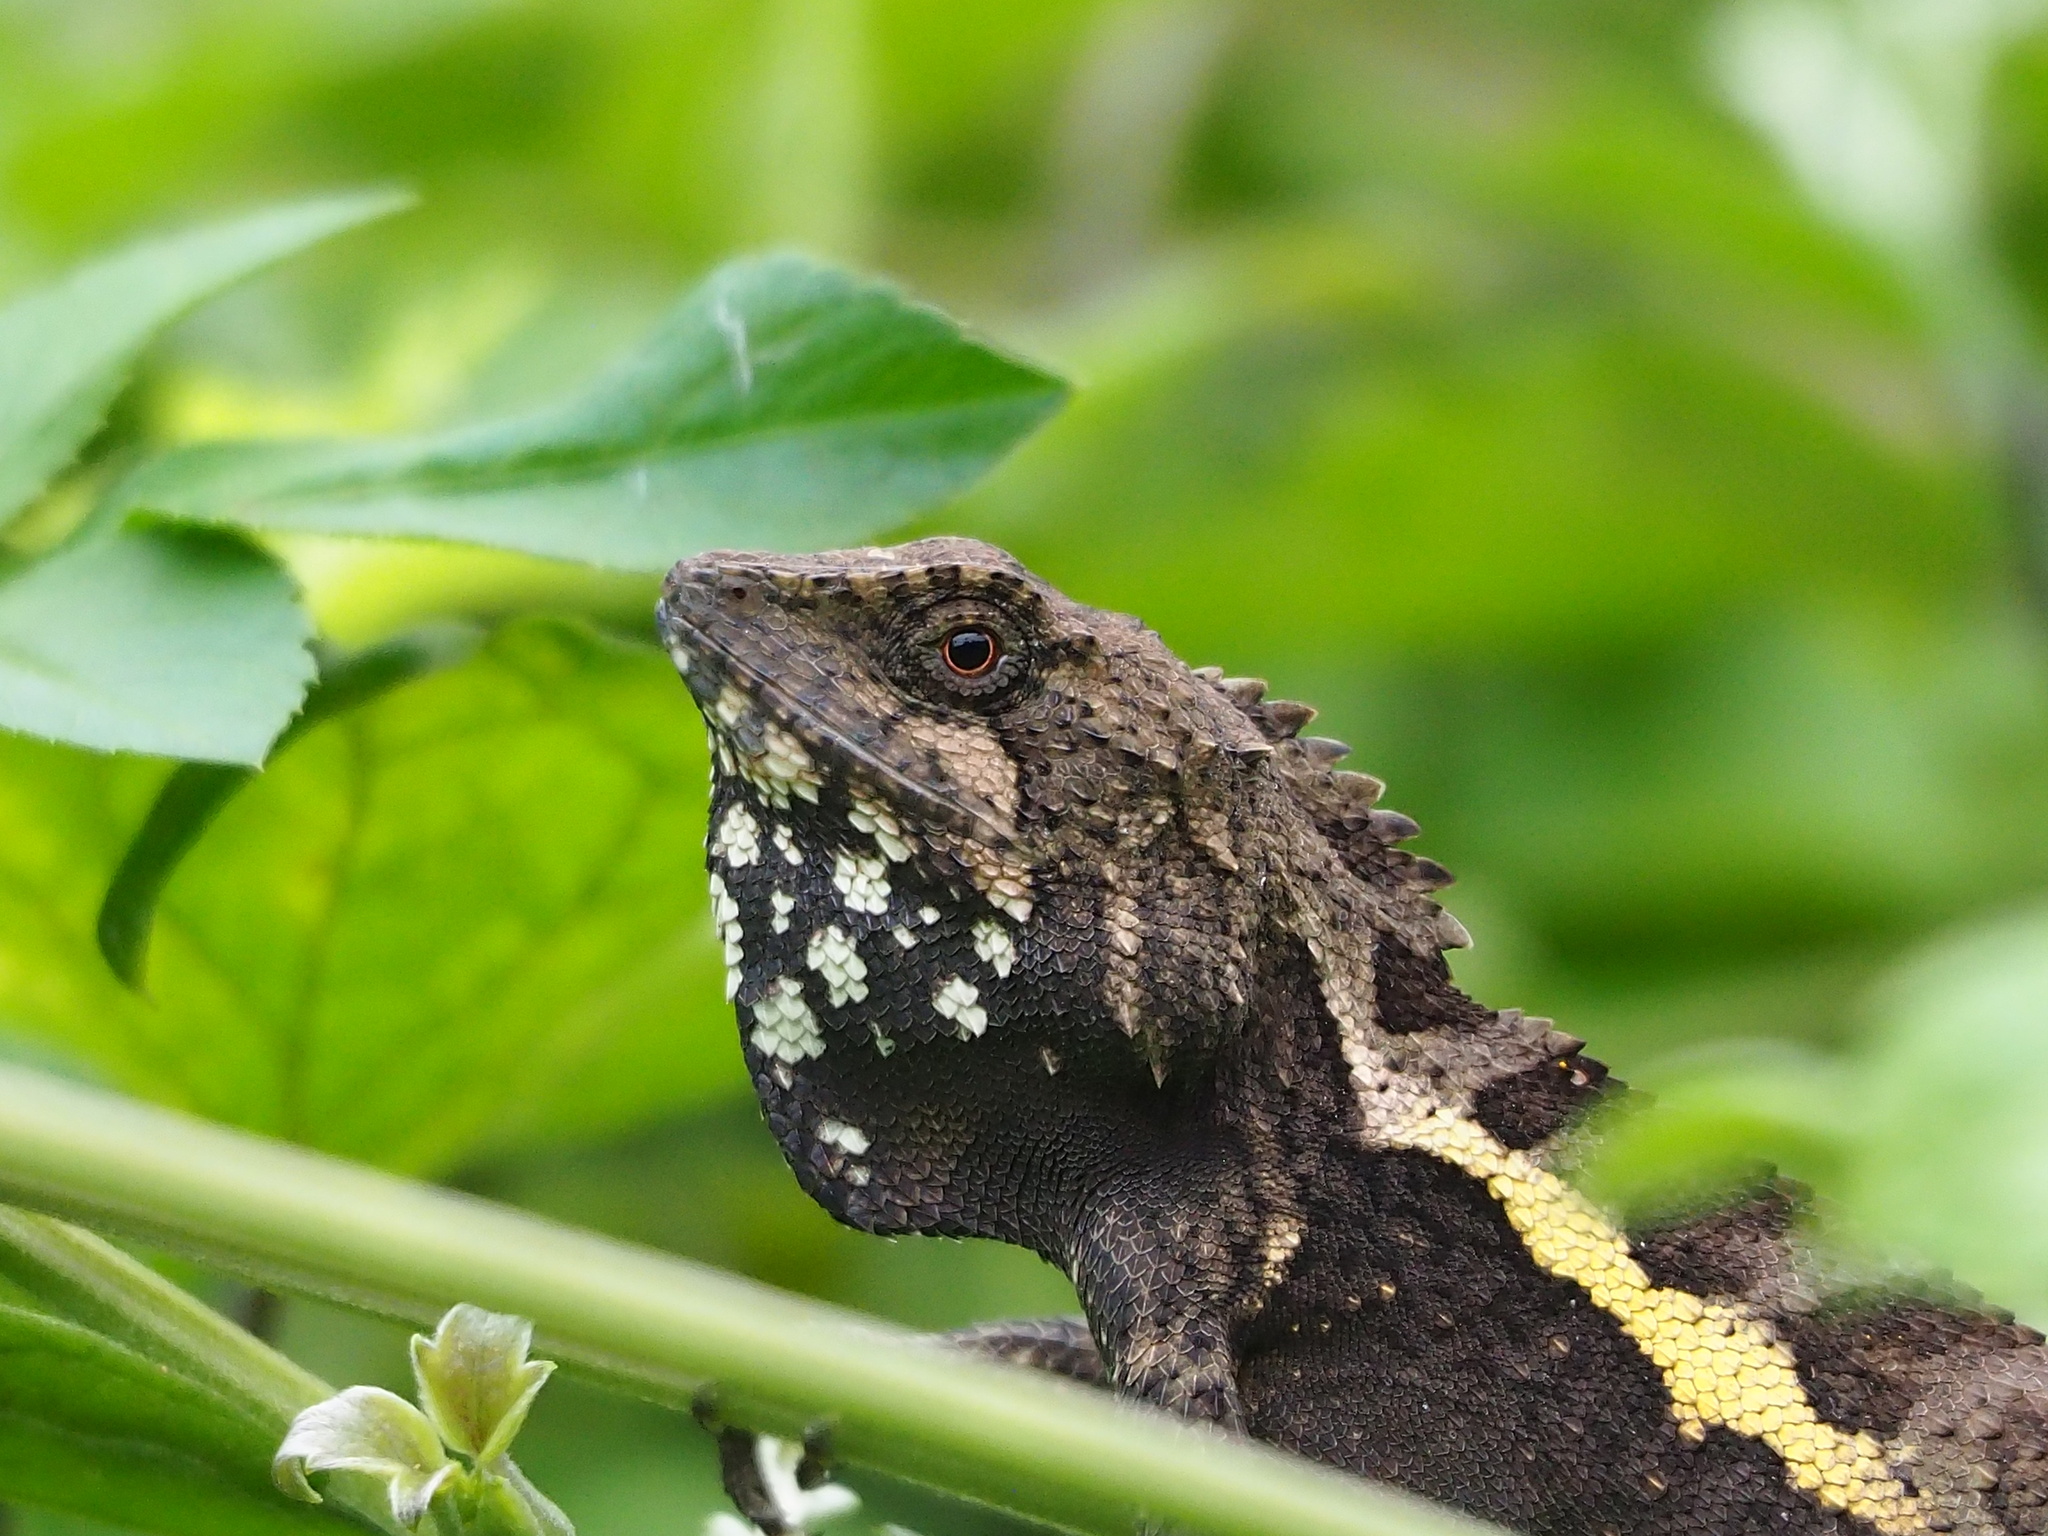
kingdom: Animalia
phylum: Chordata
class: Squamata
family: Agamidae
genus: Diploderma
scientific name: Diploderma swinhonis
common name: Taiwan japalure
